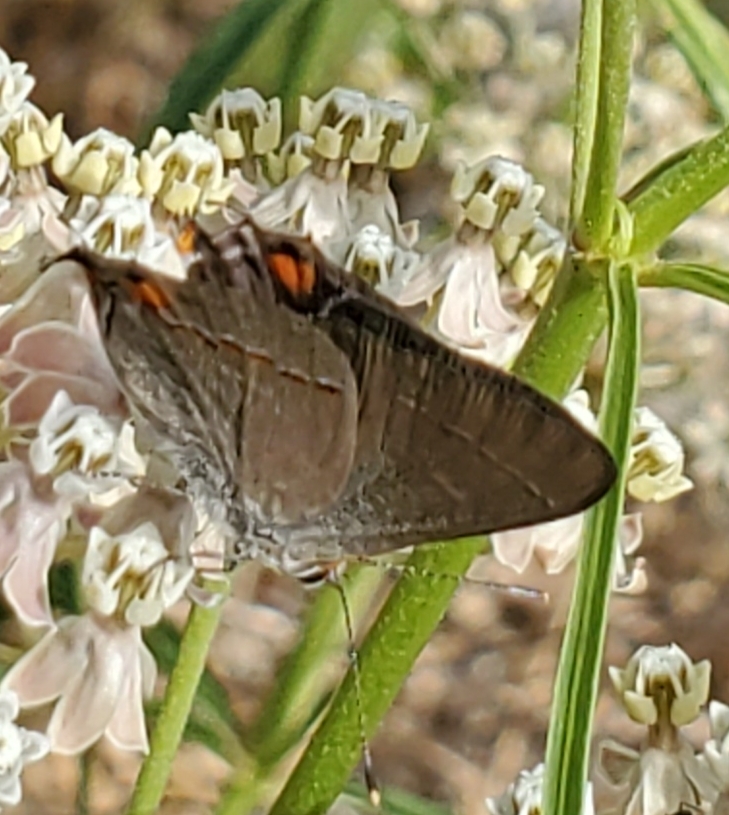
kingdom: Animalia
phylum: Arthropoda
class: Insecta
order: Lepidoptera
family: Lycaenidae
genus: Strymon
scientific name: Strymon melinus
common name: Gray hairstreak
